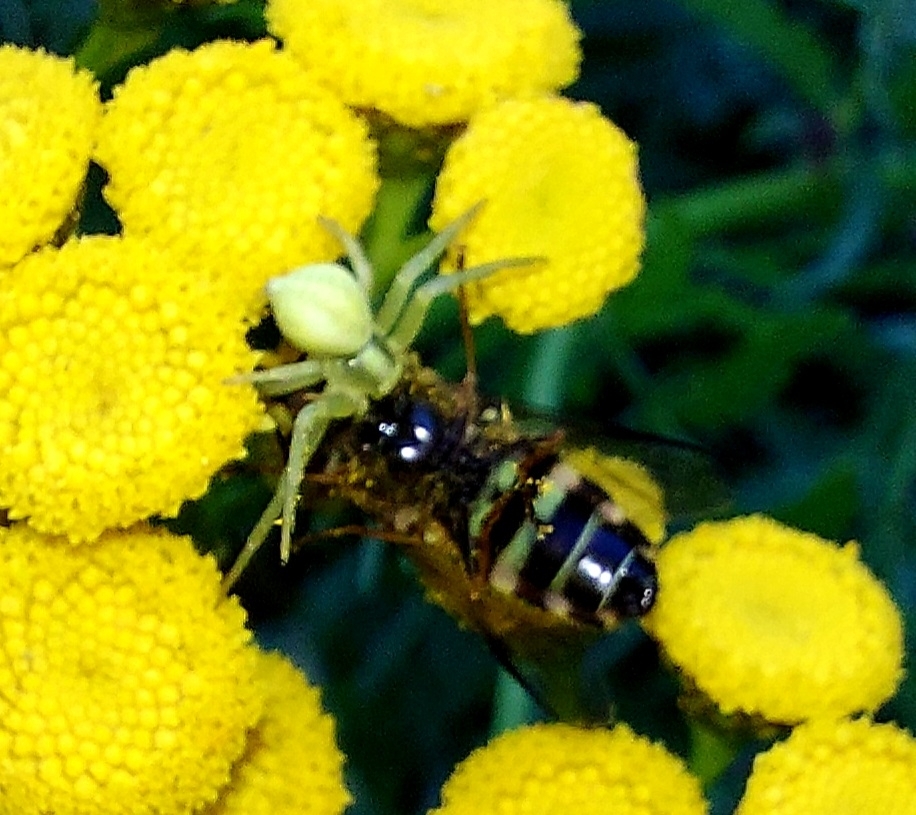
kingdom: Animalia
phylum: Arthropoda
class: Arachnida
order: Araneae
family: Thomisidae
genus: Misumena
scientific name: Misumena vatia
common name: Goldenrod crab spider
